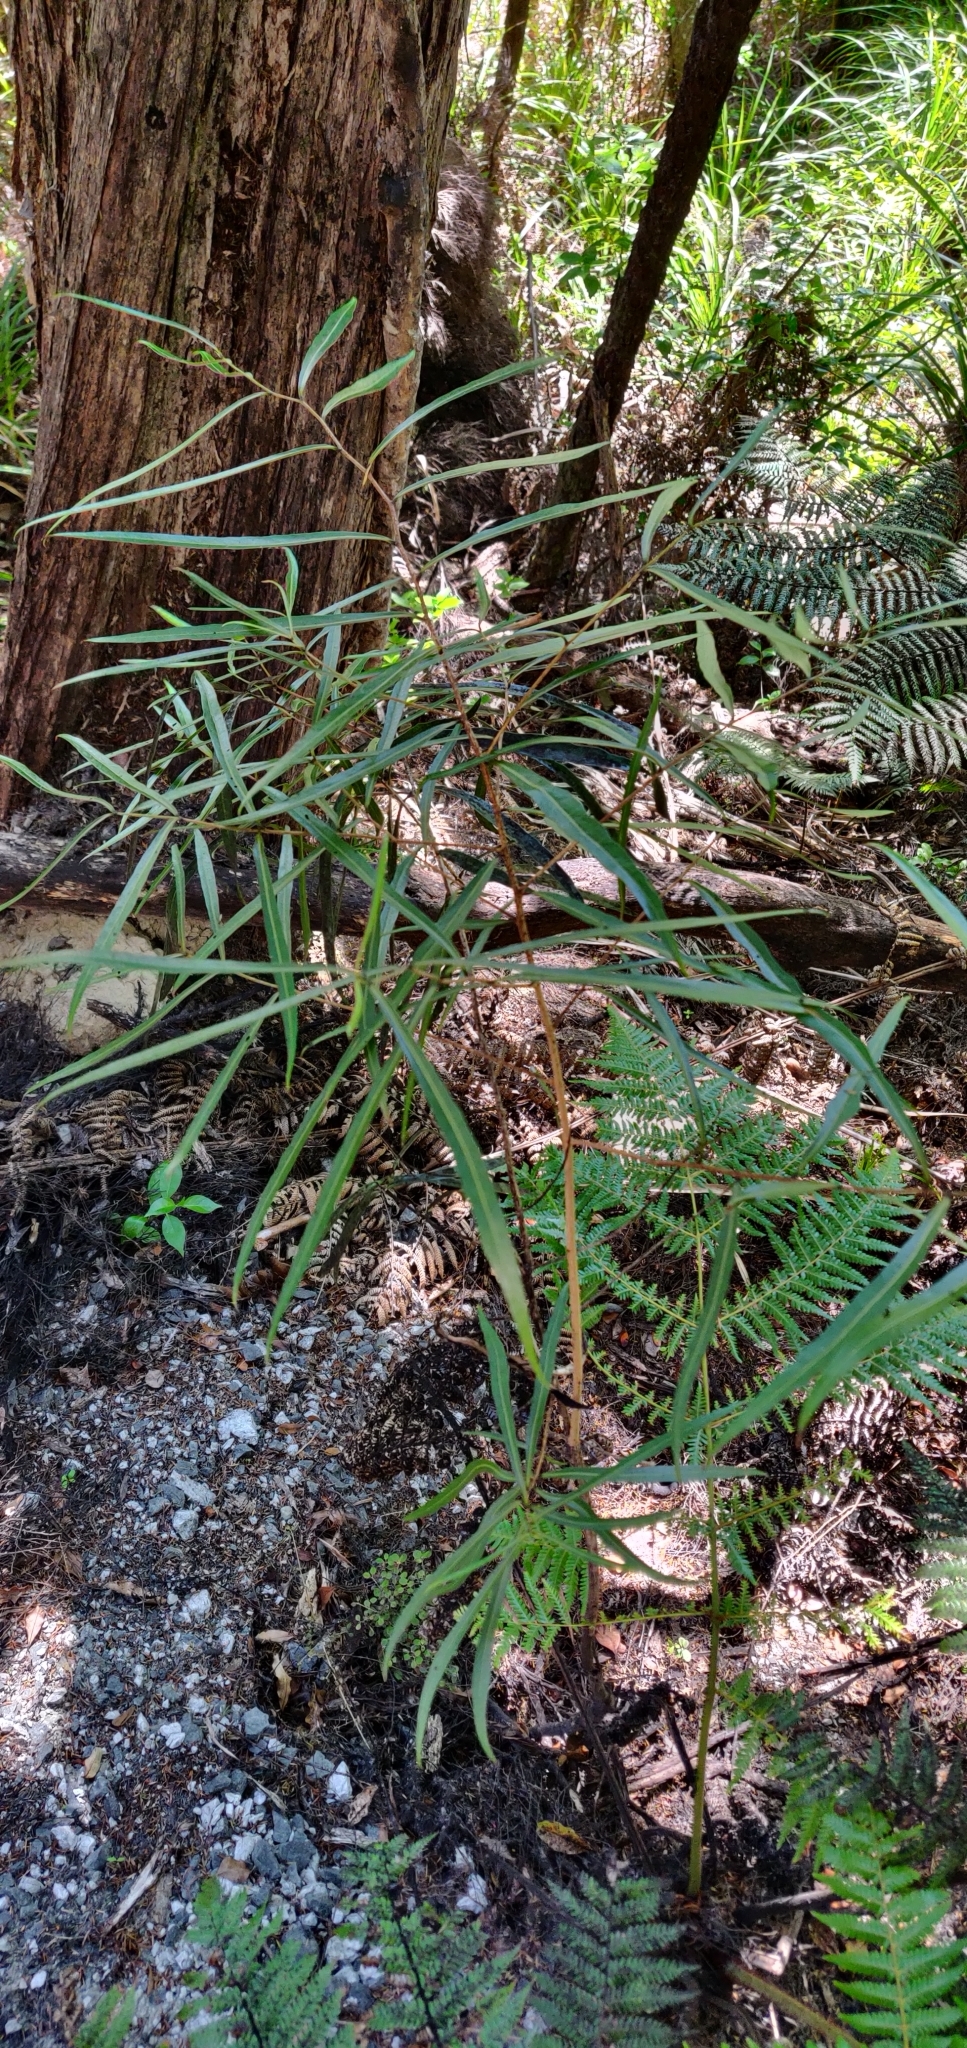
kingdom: Plantae
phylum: Tracheophyta
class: Magnoliopsida
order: Santalales
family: Nanodeaceae
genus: Mida
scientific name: Mida salicifolia
